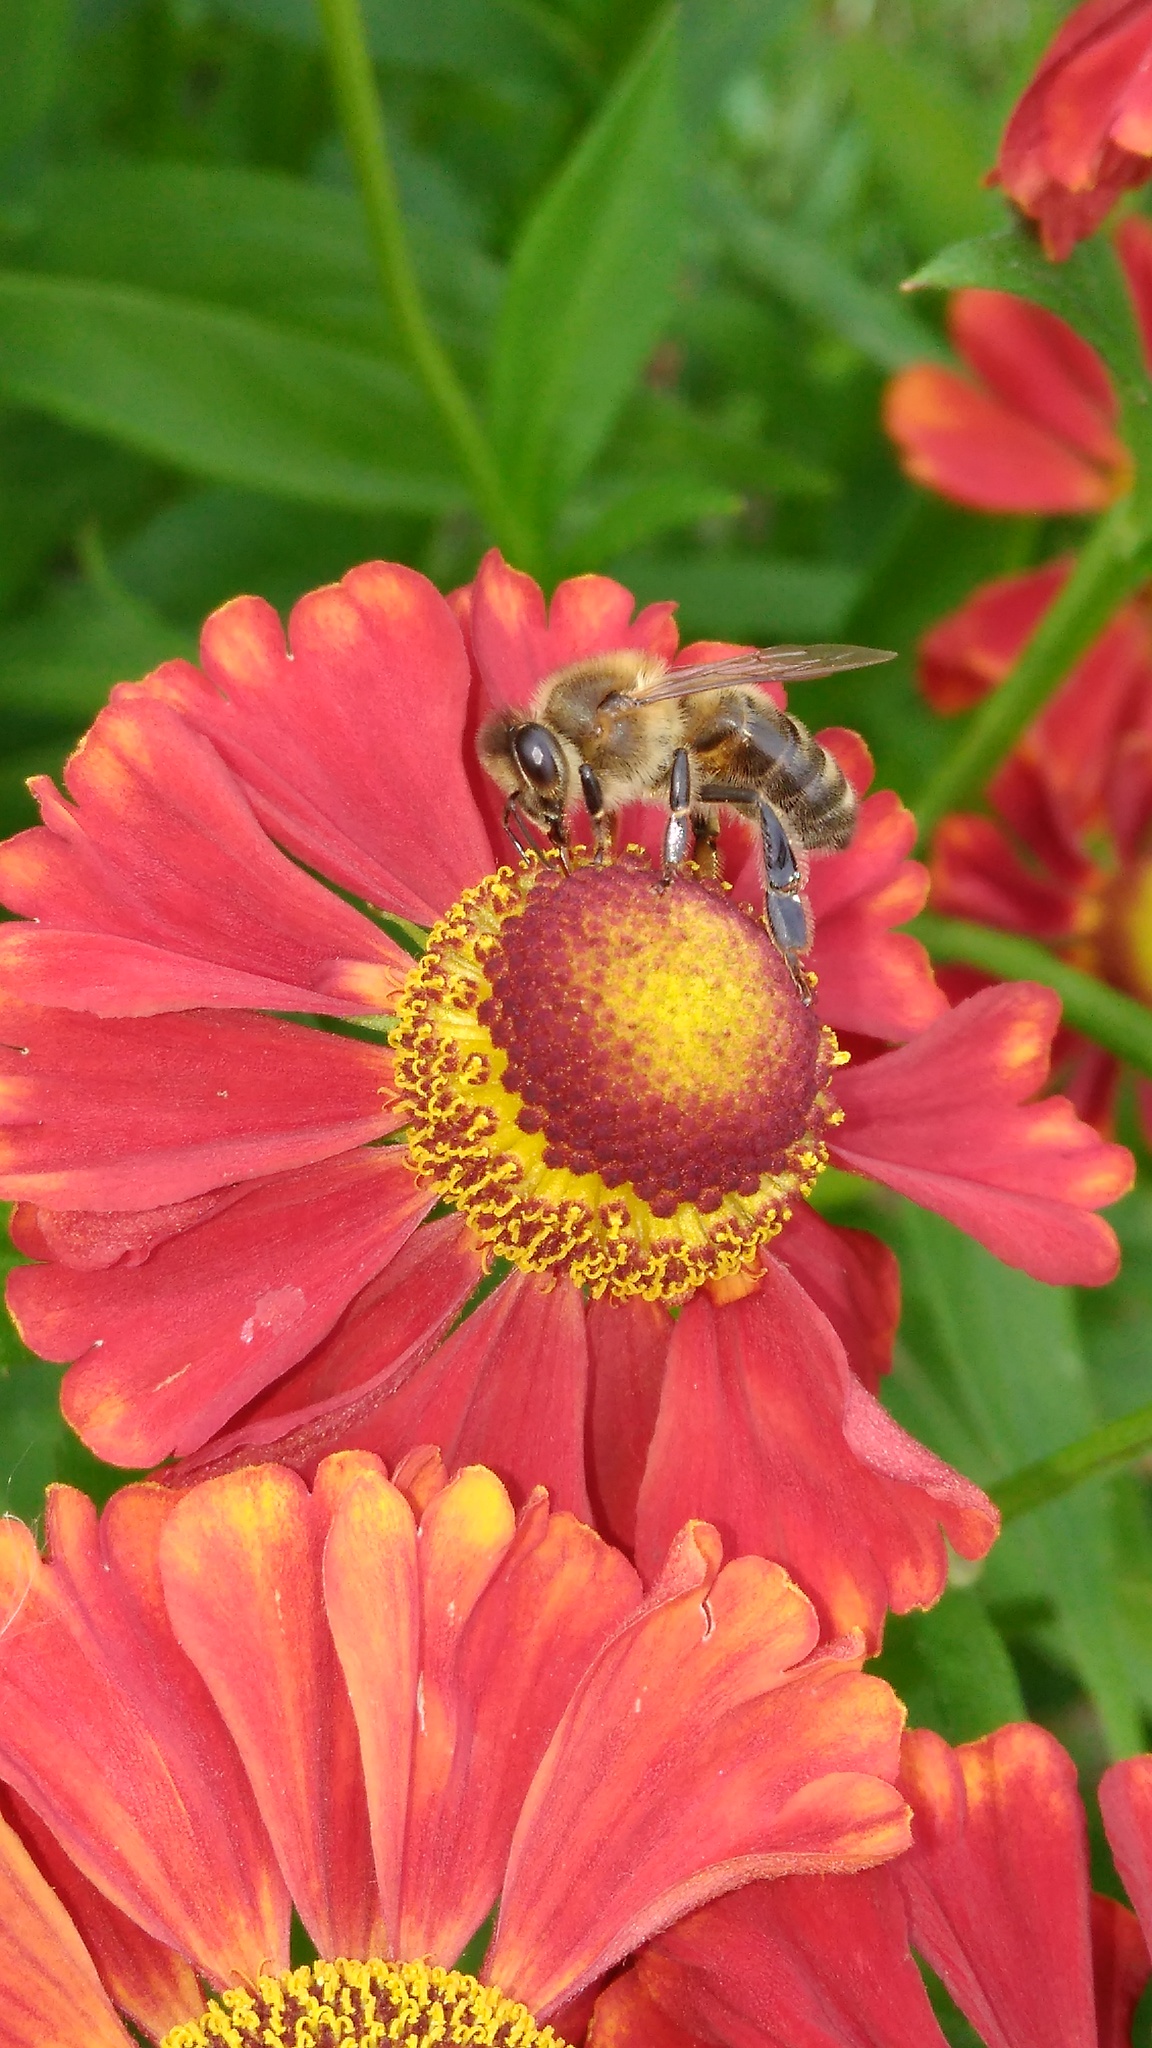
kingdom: Animalia
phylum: Arthropoda
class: Insecta
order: Hymenoptera
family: Apidae
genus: Apis
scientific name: Apis mellifera
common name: Honey bee
